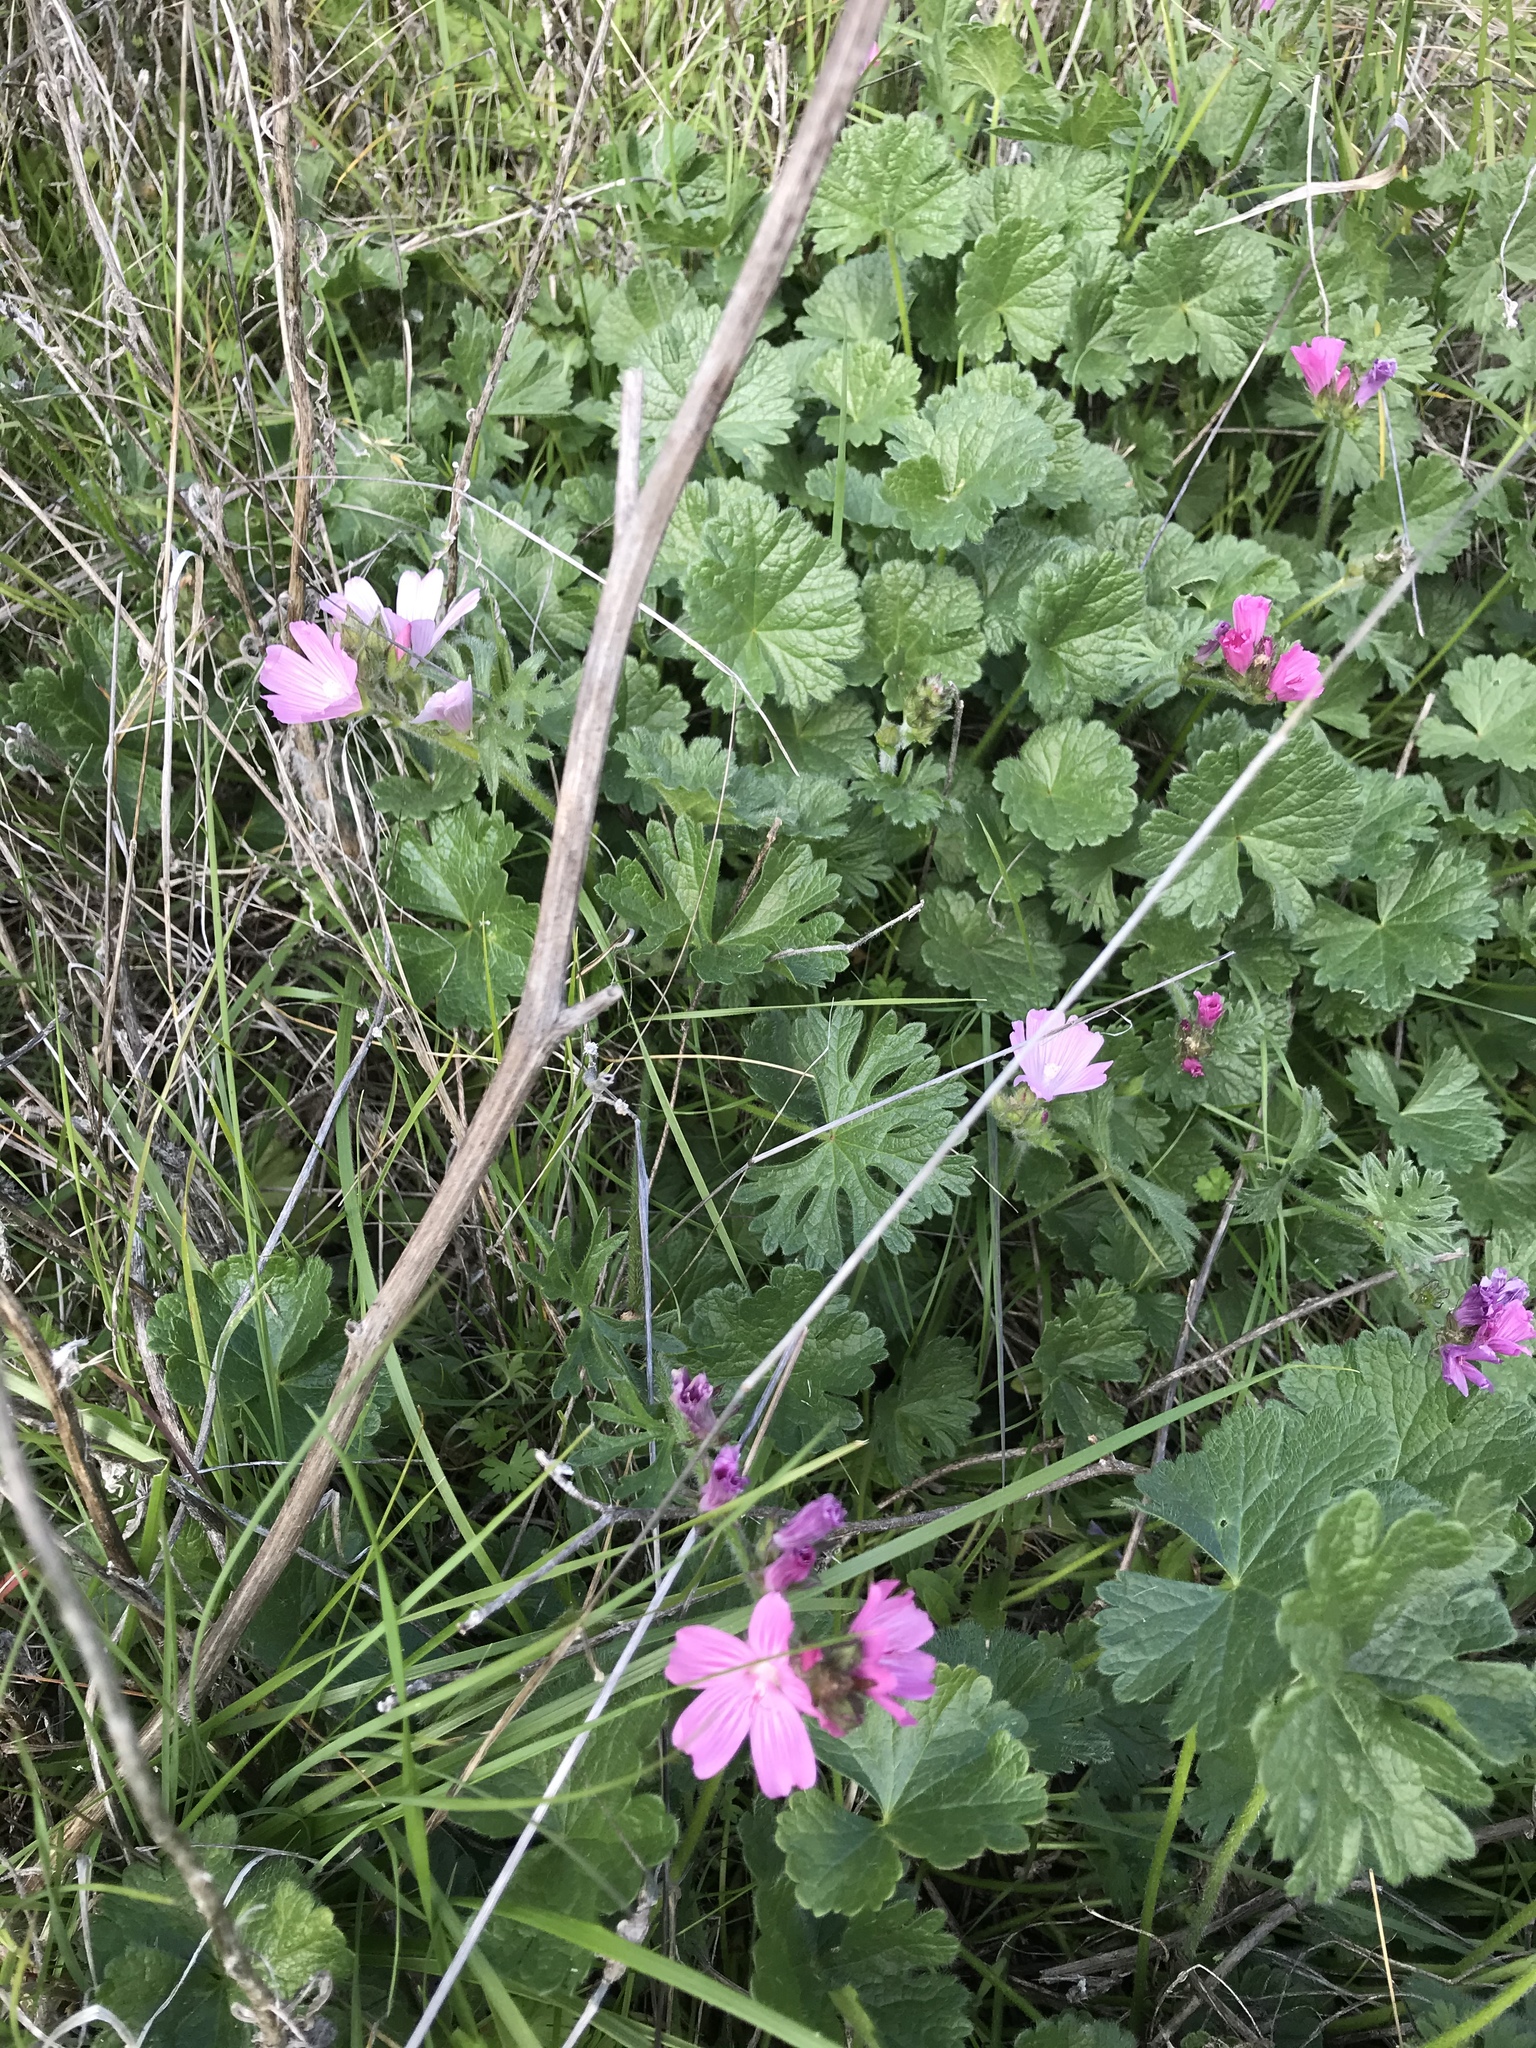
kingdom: Plantae
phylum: Tracheophyta
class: Magnoliopsida
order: Malvales
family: Malvaceae
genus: Sidalcea
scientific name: Sidalcea malviflora
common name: Greek mallow
